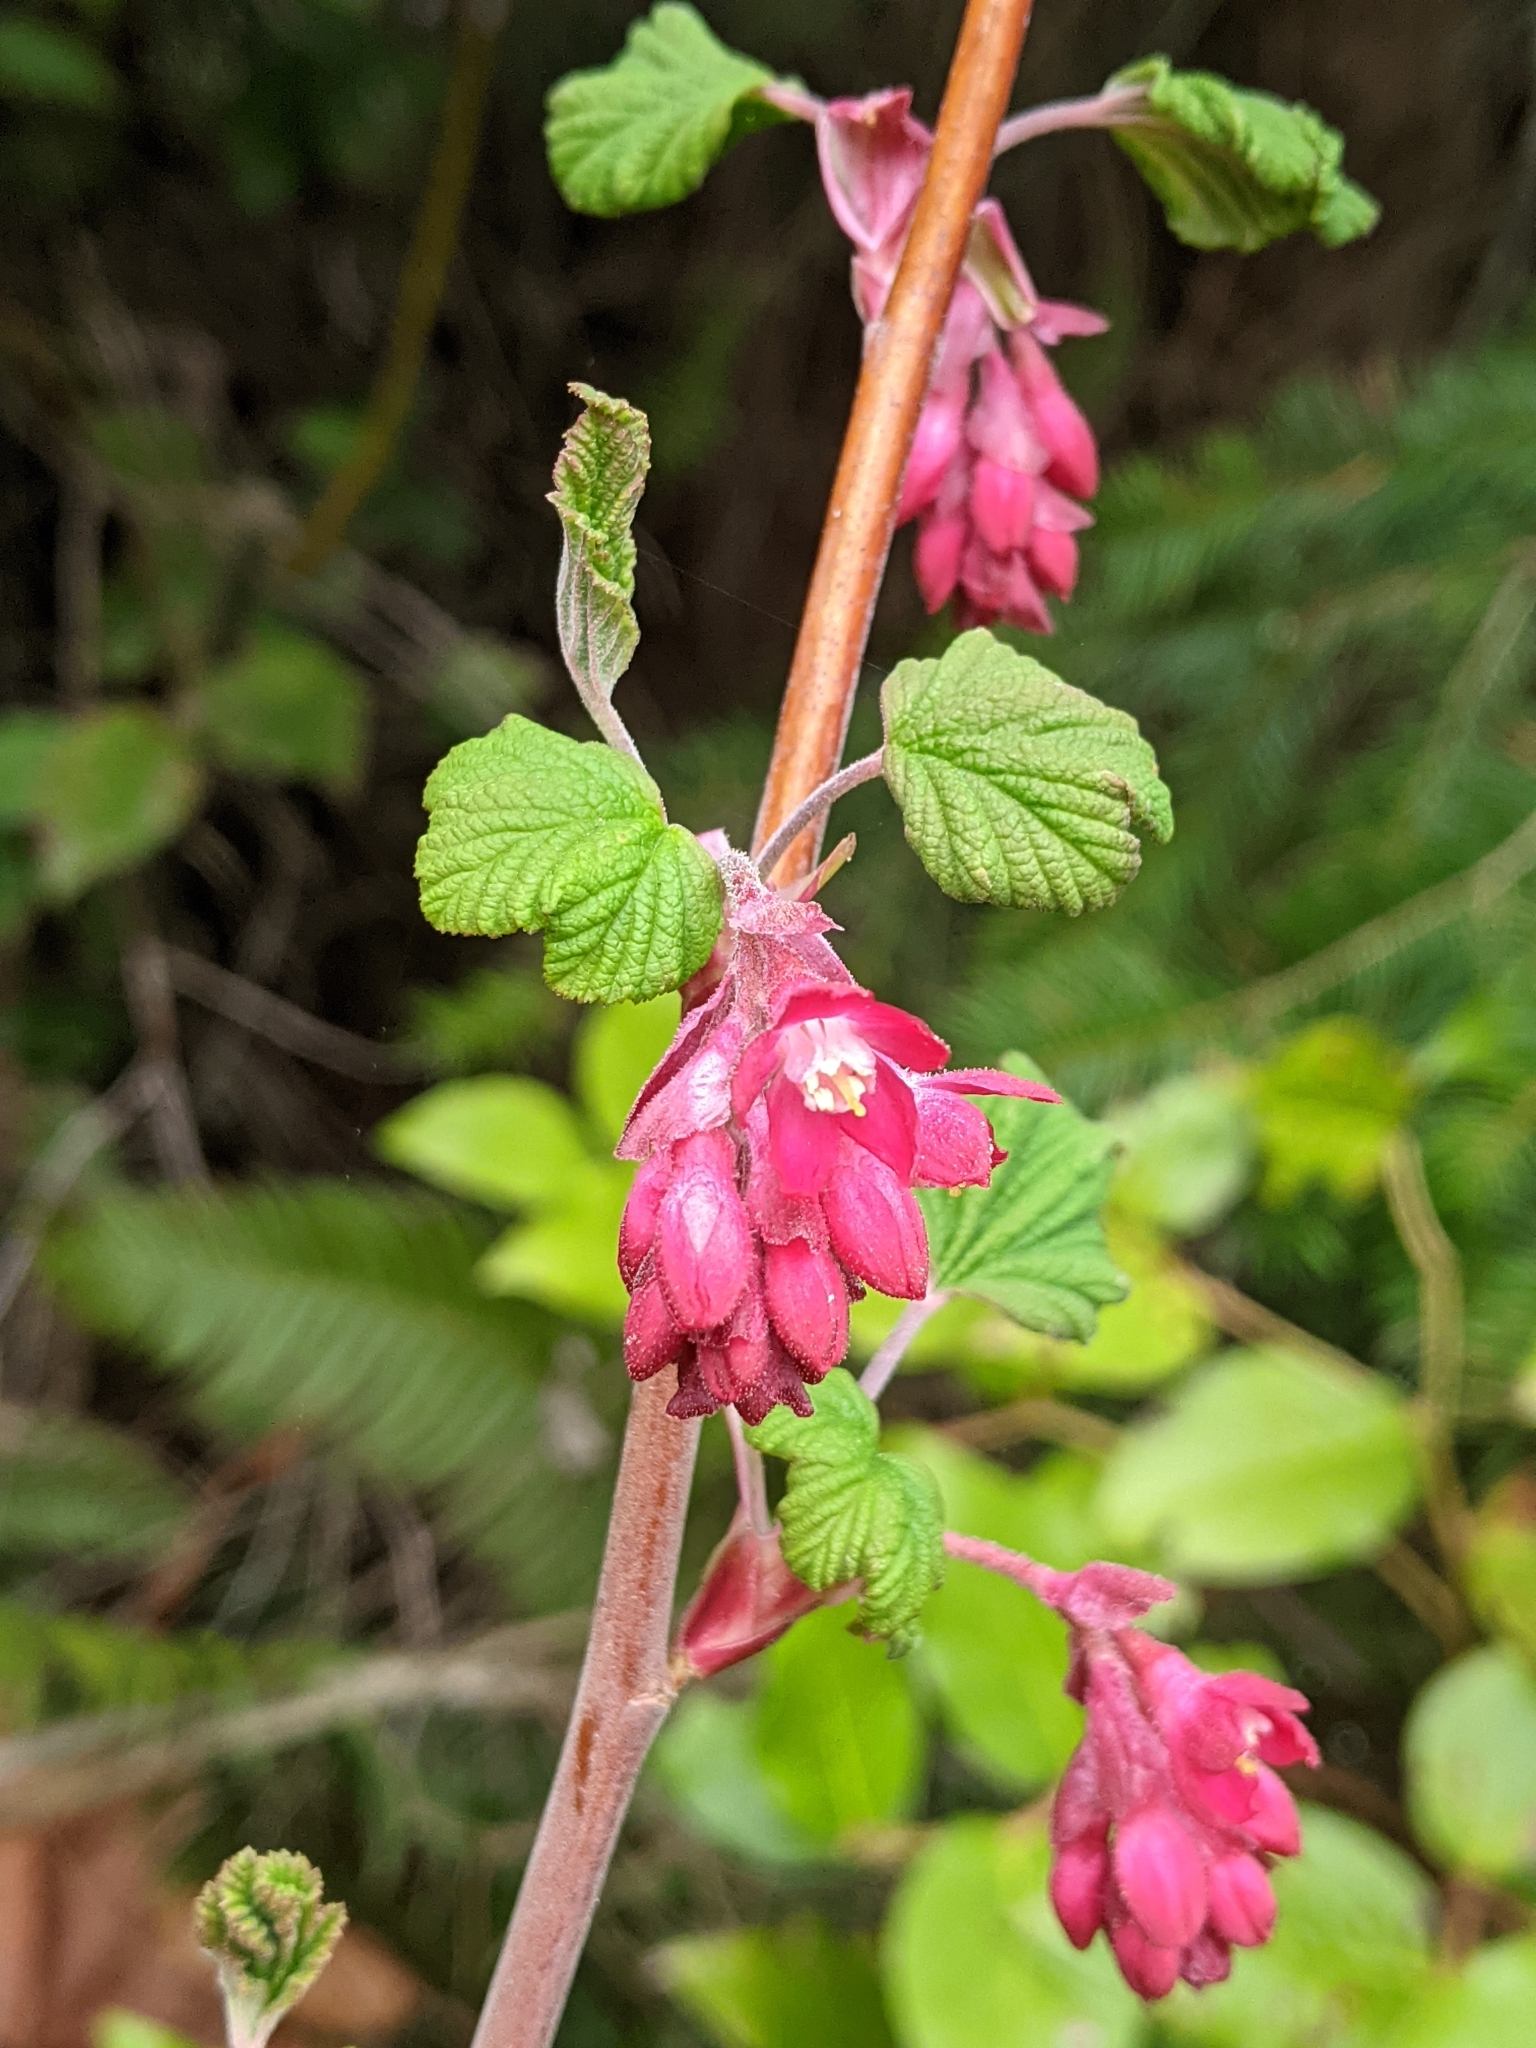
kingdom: Plantae
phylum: Tracheophyta
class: Magnoliopsida
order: Saxifragales
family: Grossulariaceae
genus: Ribes
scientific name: Ribes sanguineum
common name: Flowering currant
